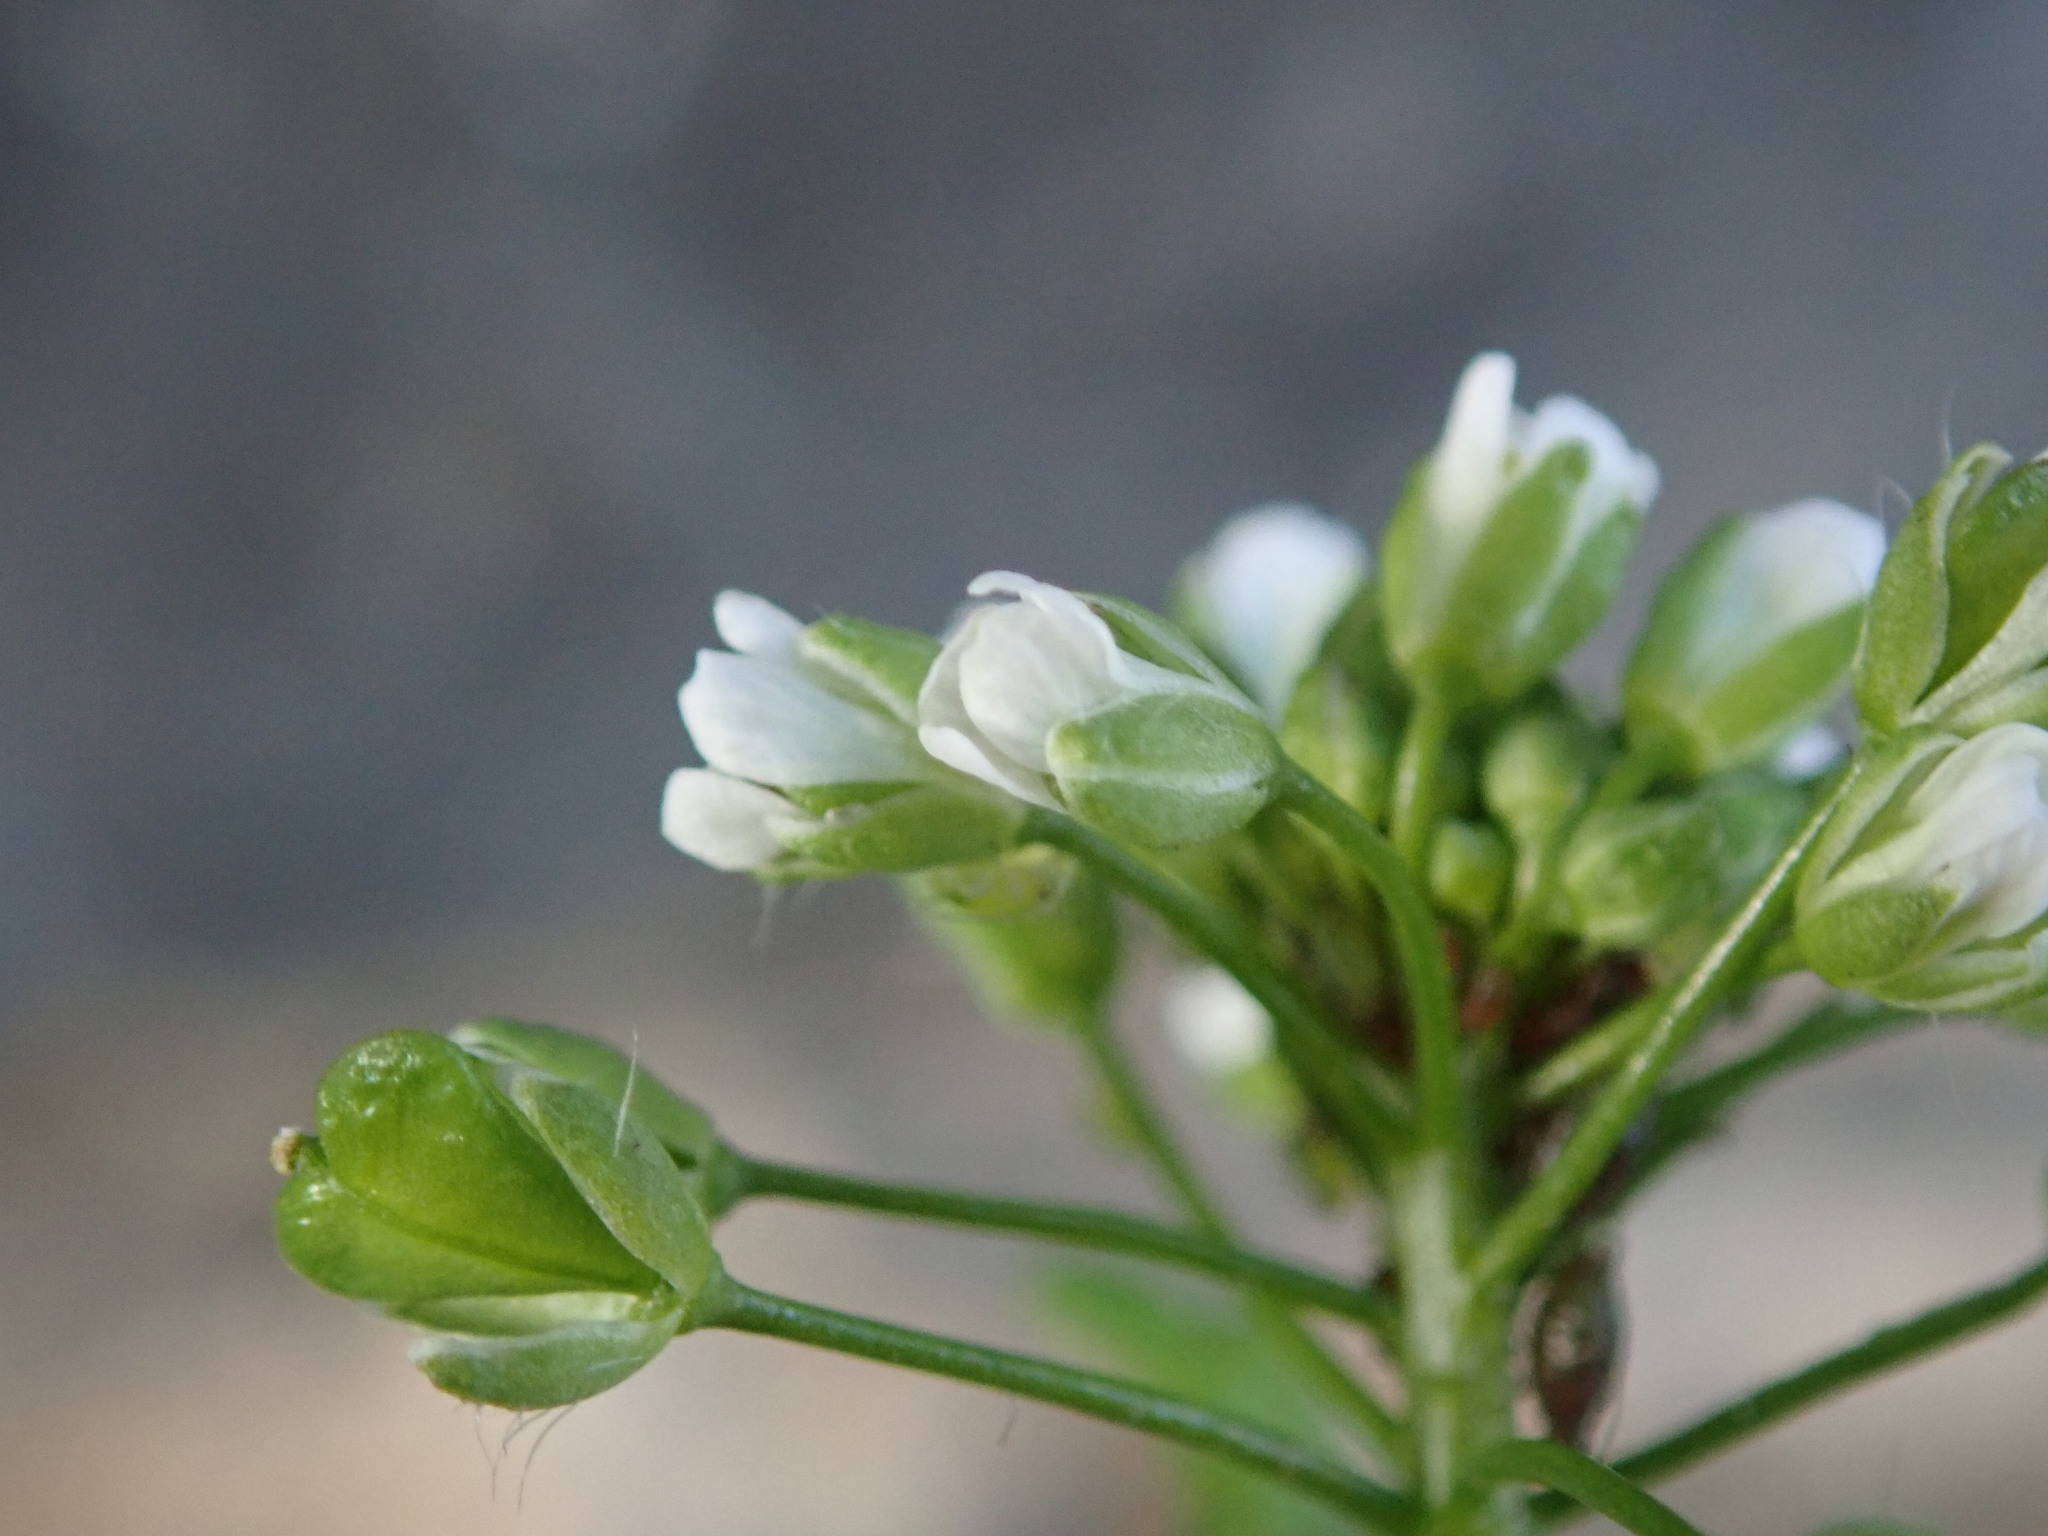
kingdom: Plantae
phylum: Tracheophyta
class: Magnoliopsida
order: Brassicales
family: Brassicaceae
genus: Capsella
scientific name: Capsella bursa-pastoris
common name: Shepherd's purse
